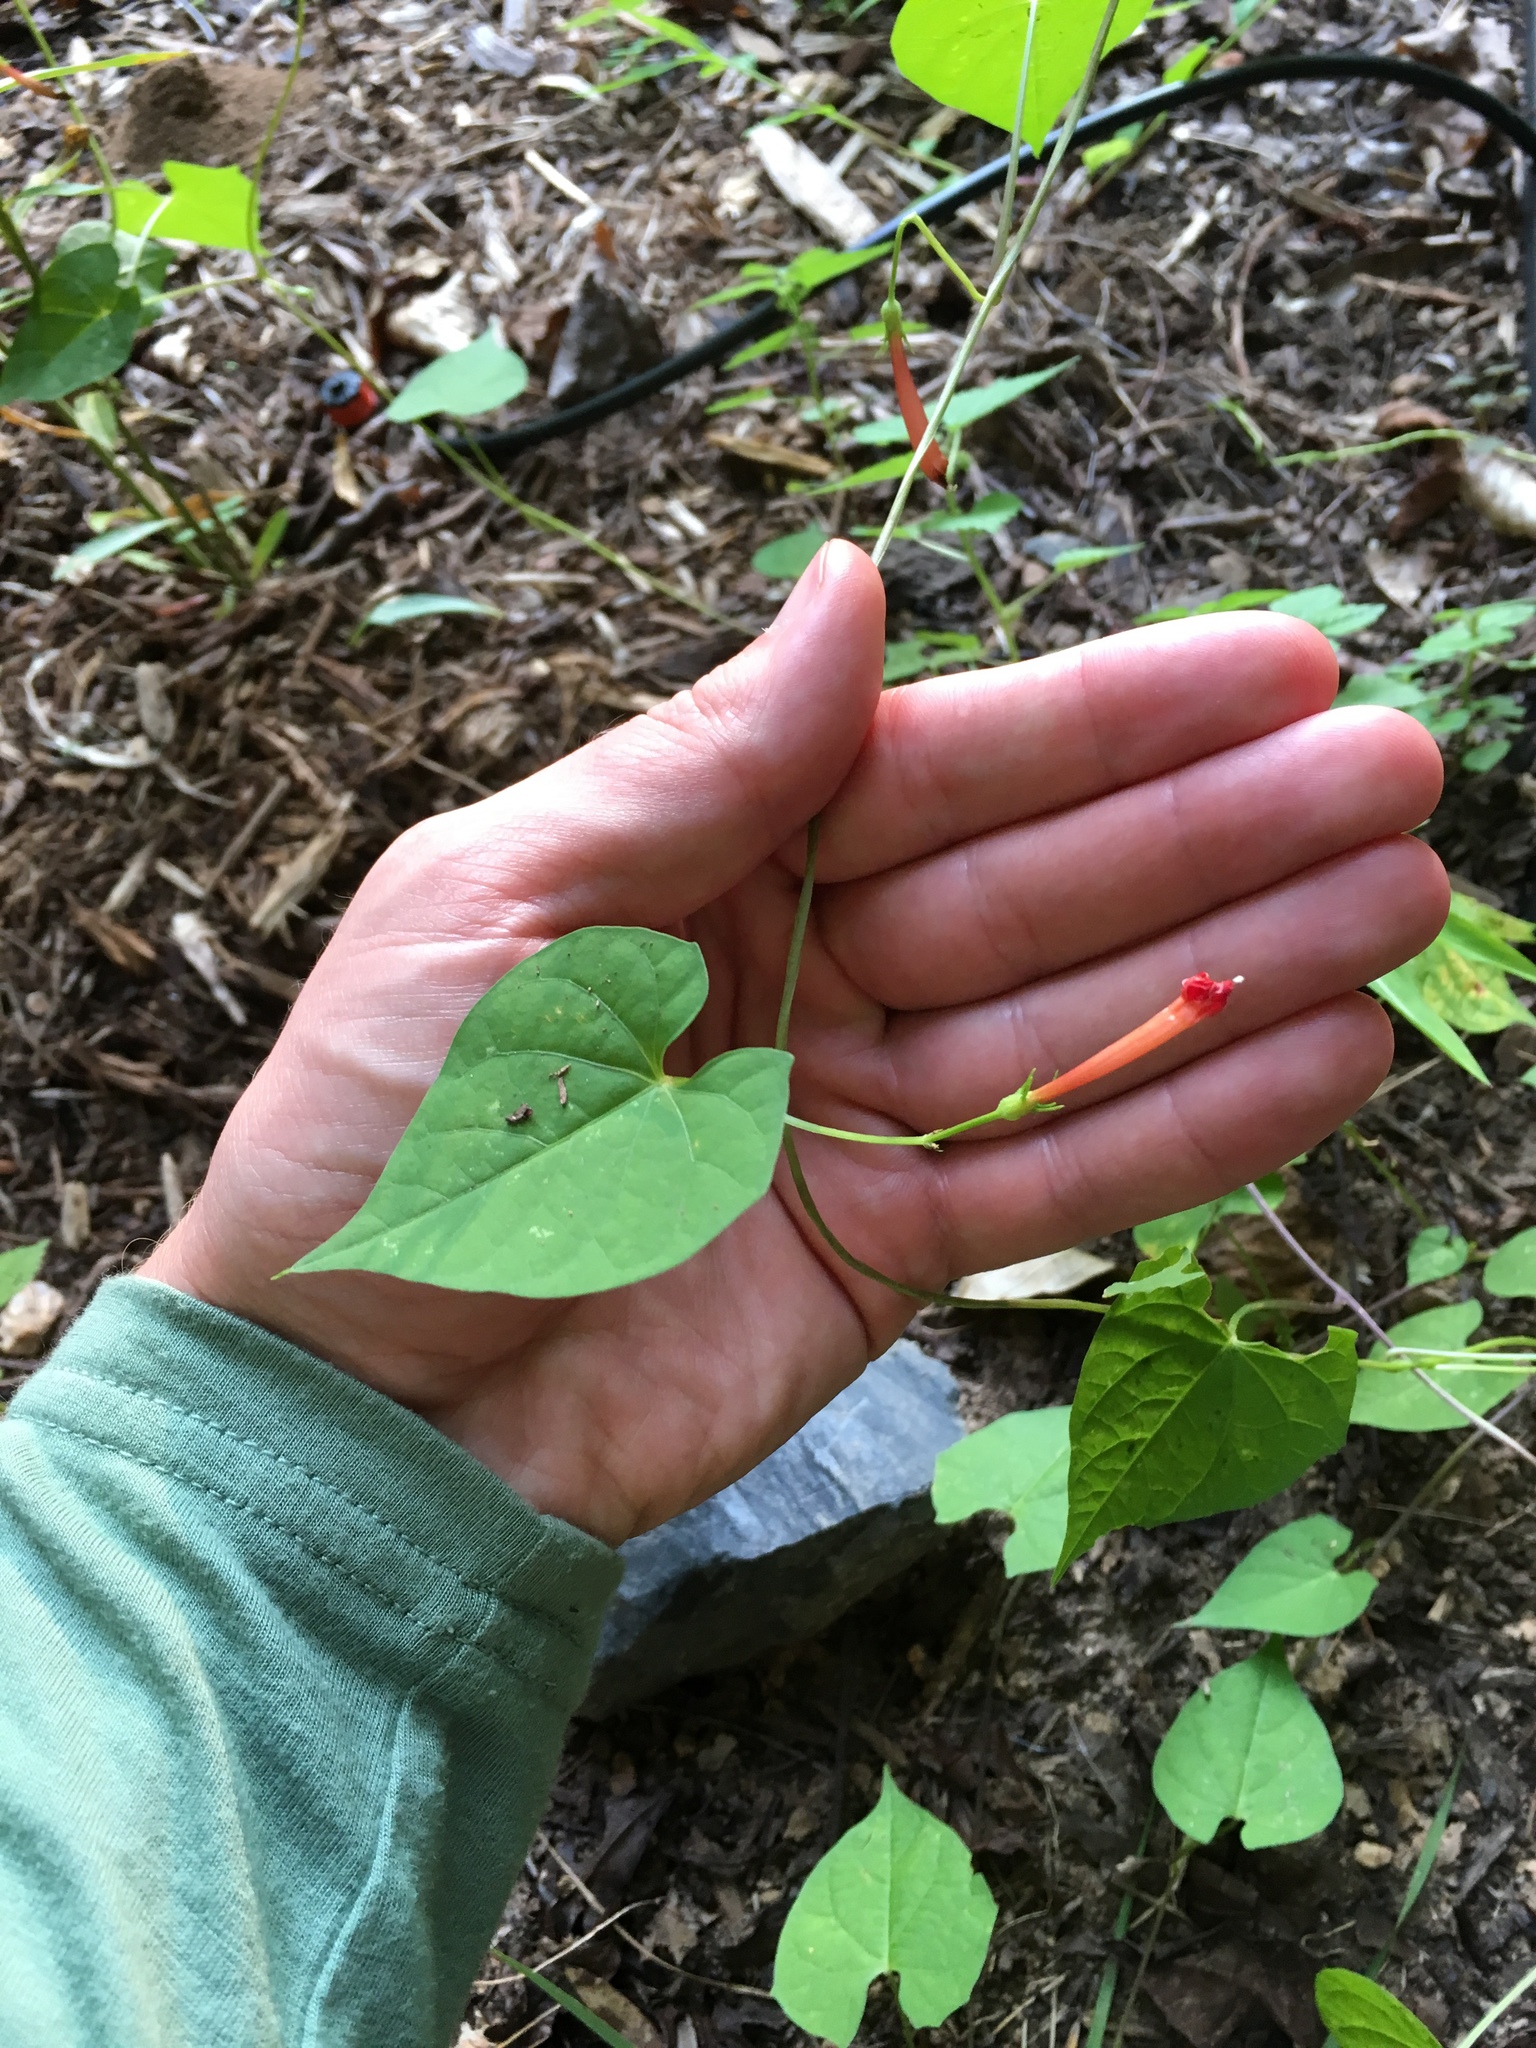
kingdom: Plantae
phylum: Tracheophyta
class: Magnoliopsida
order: Solanales
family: Convolvulaceae
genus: Ipomoea
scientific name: Ipomoea coccinea
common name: Red morning-glory
